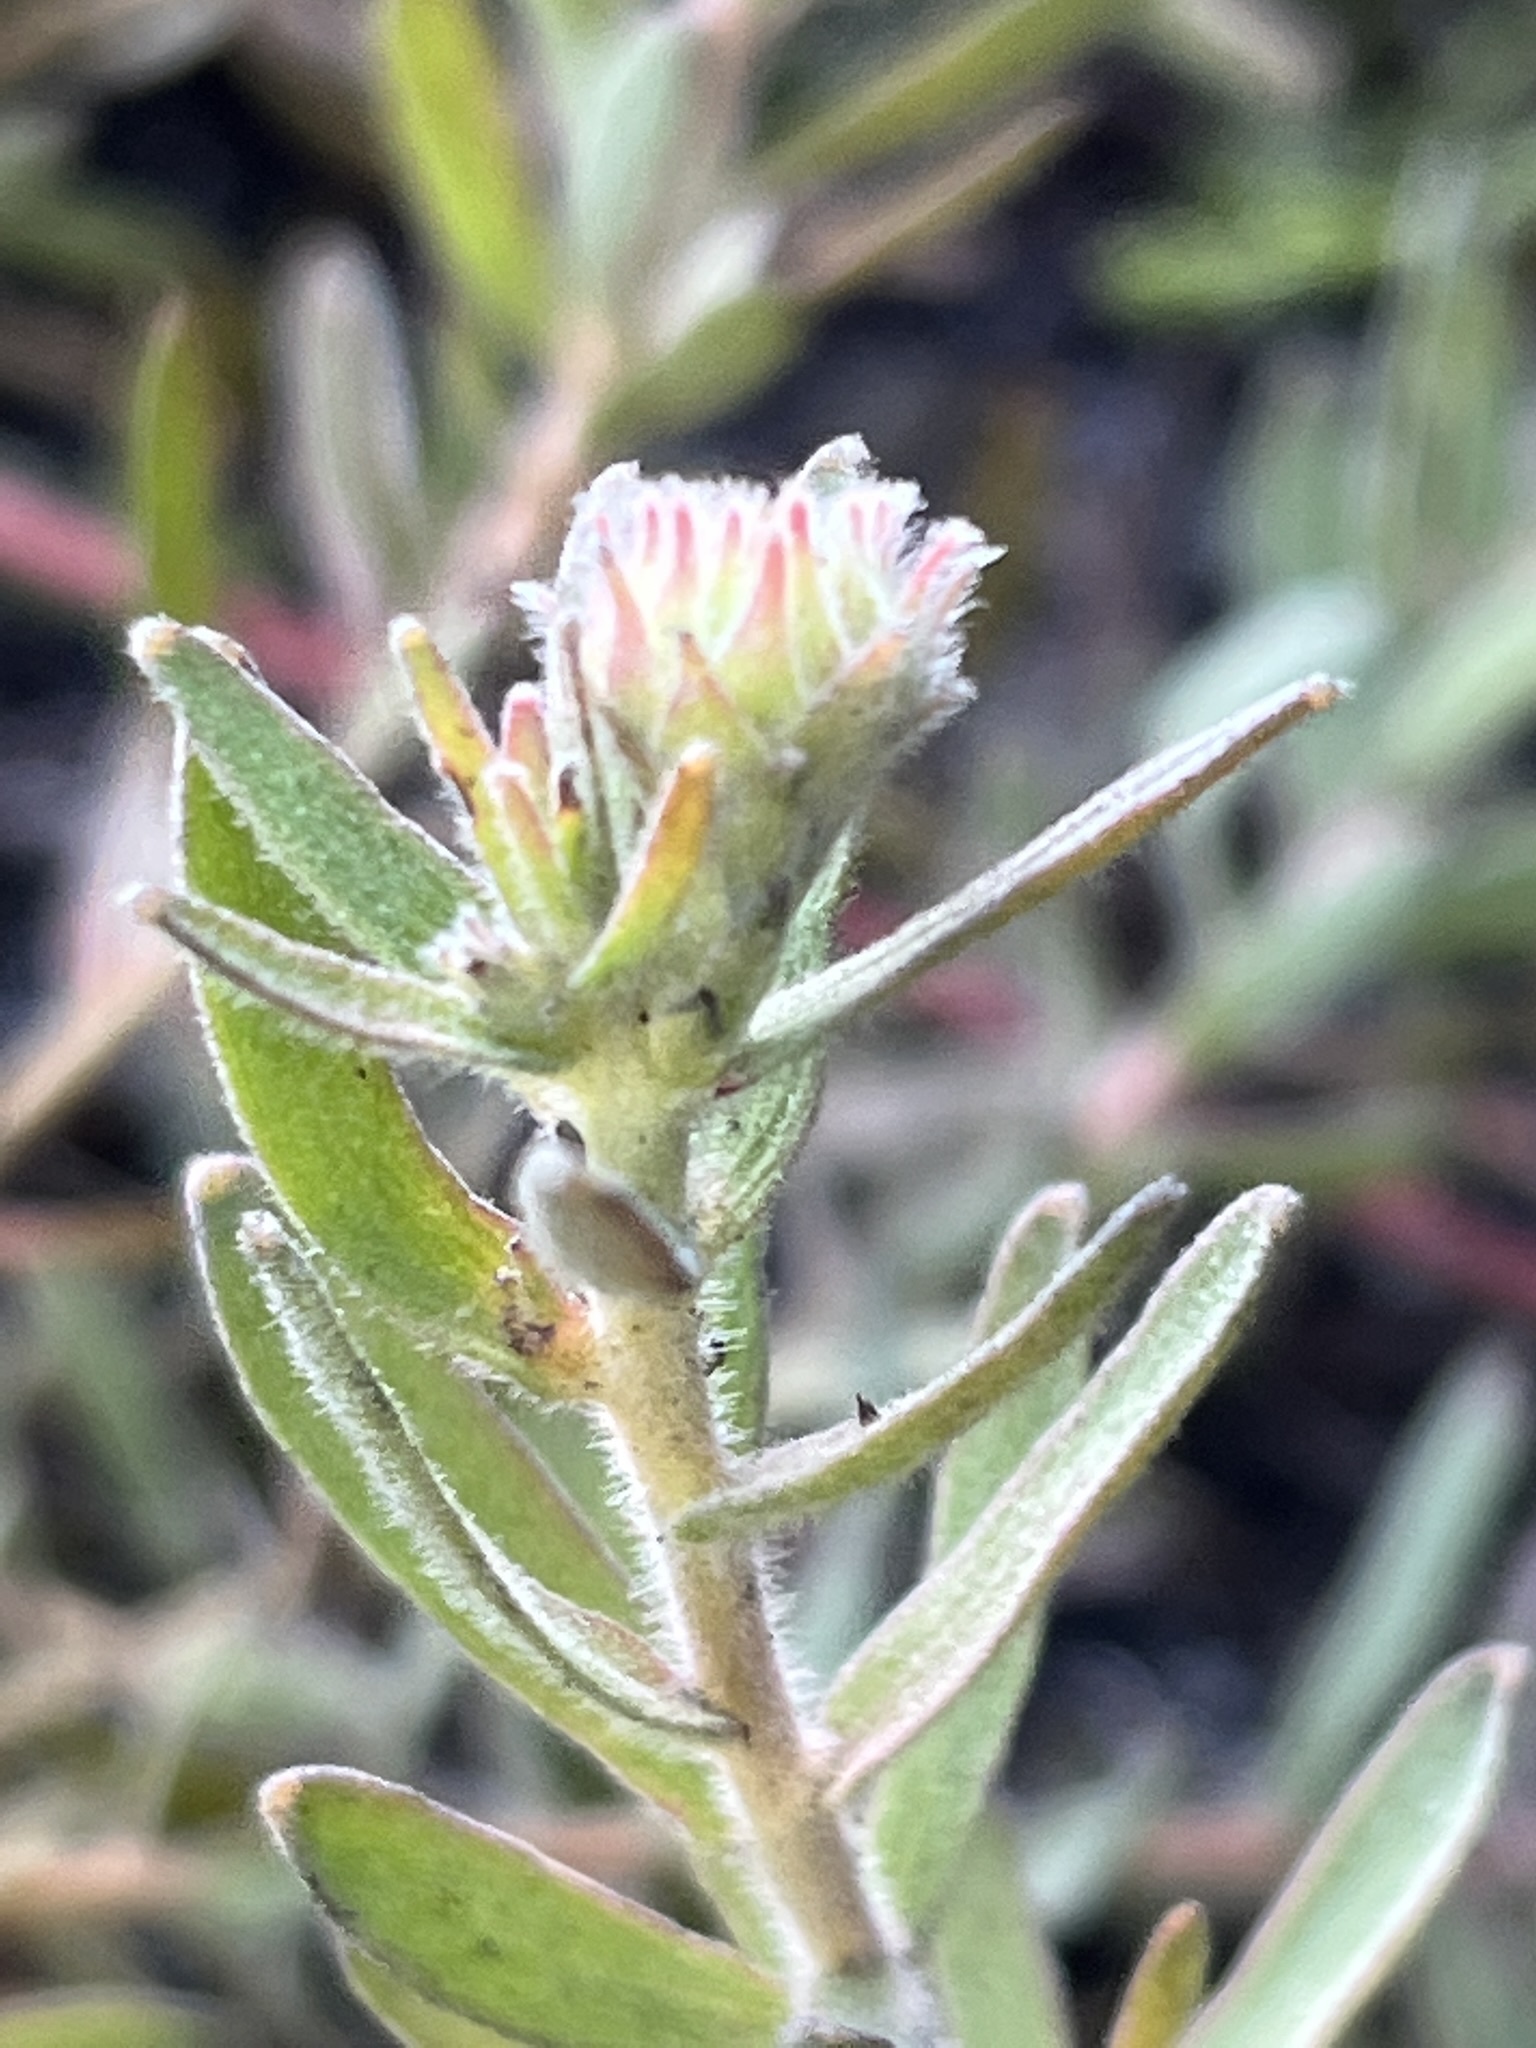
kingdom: Plantae
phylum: Tracheophyta
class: Magnoliopsida
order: Proteales
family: Proteaceae
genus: Leucospermum
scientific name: Leucospermum pedunculatum
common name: White-trailing pincushion
